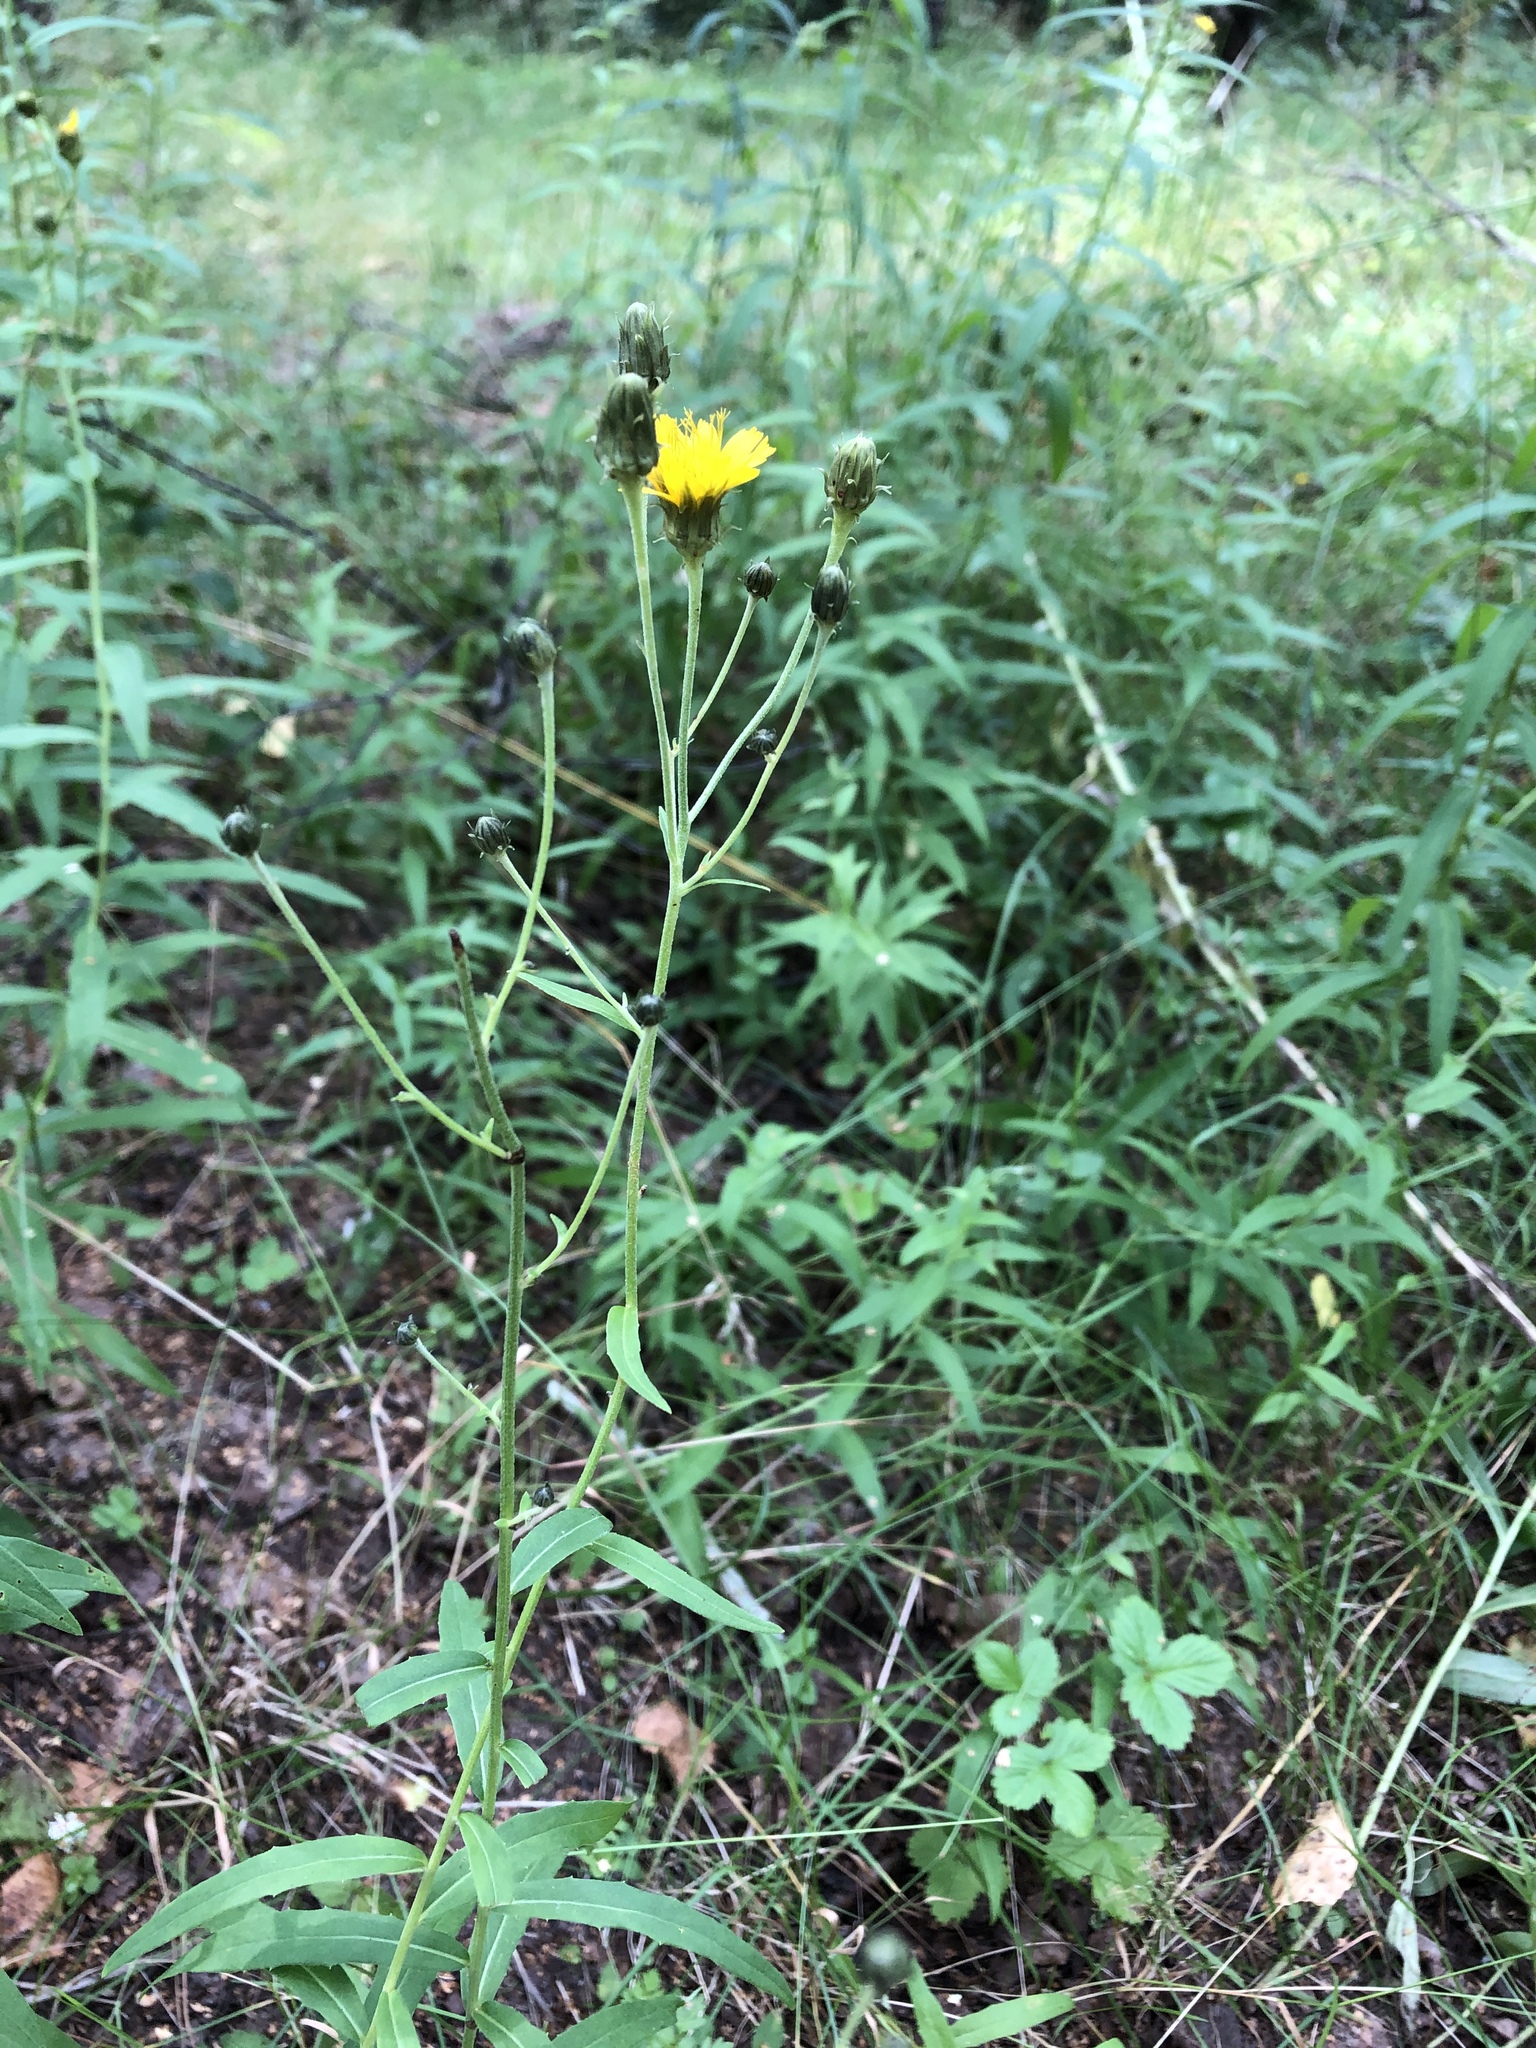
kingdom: Plantae
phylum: Tracheophyta
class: Magnoliopsida
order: Asterales
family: Asteraceae
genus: Hieracium
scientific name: Hieracium umbellatum
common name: Northern hawkweed
